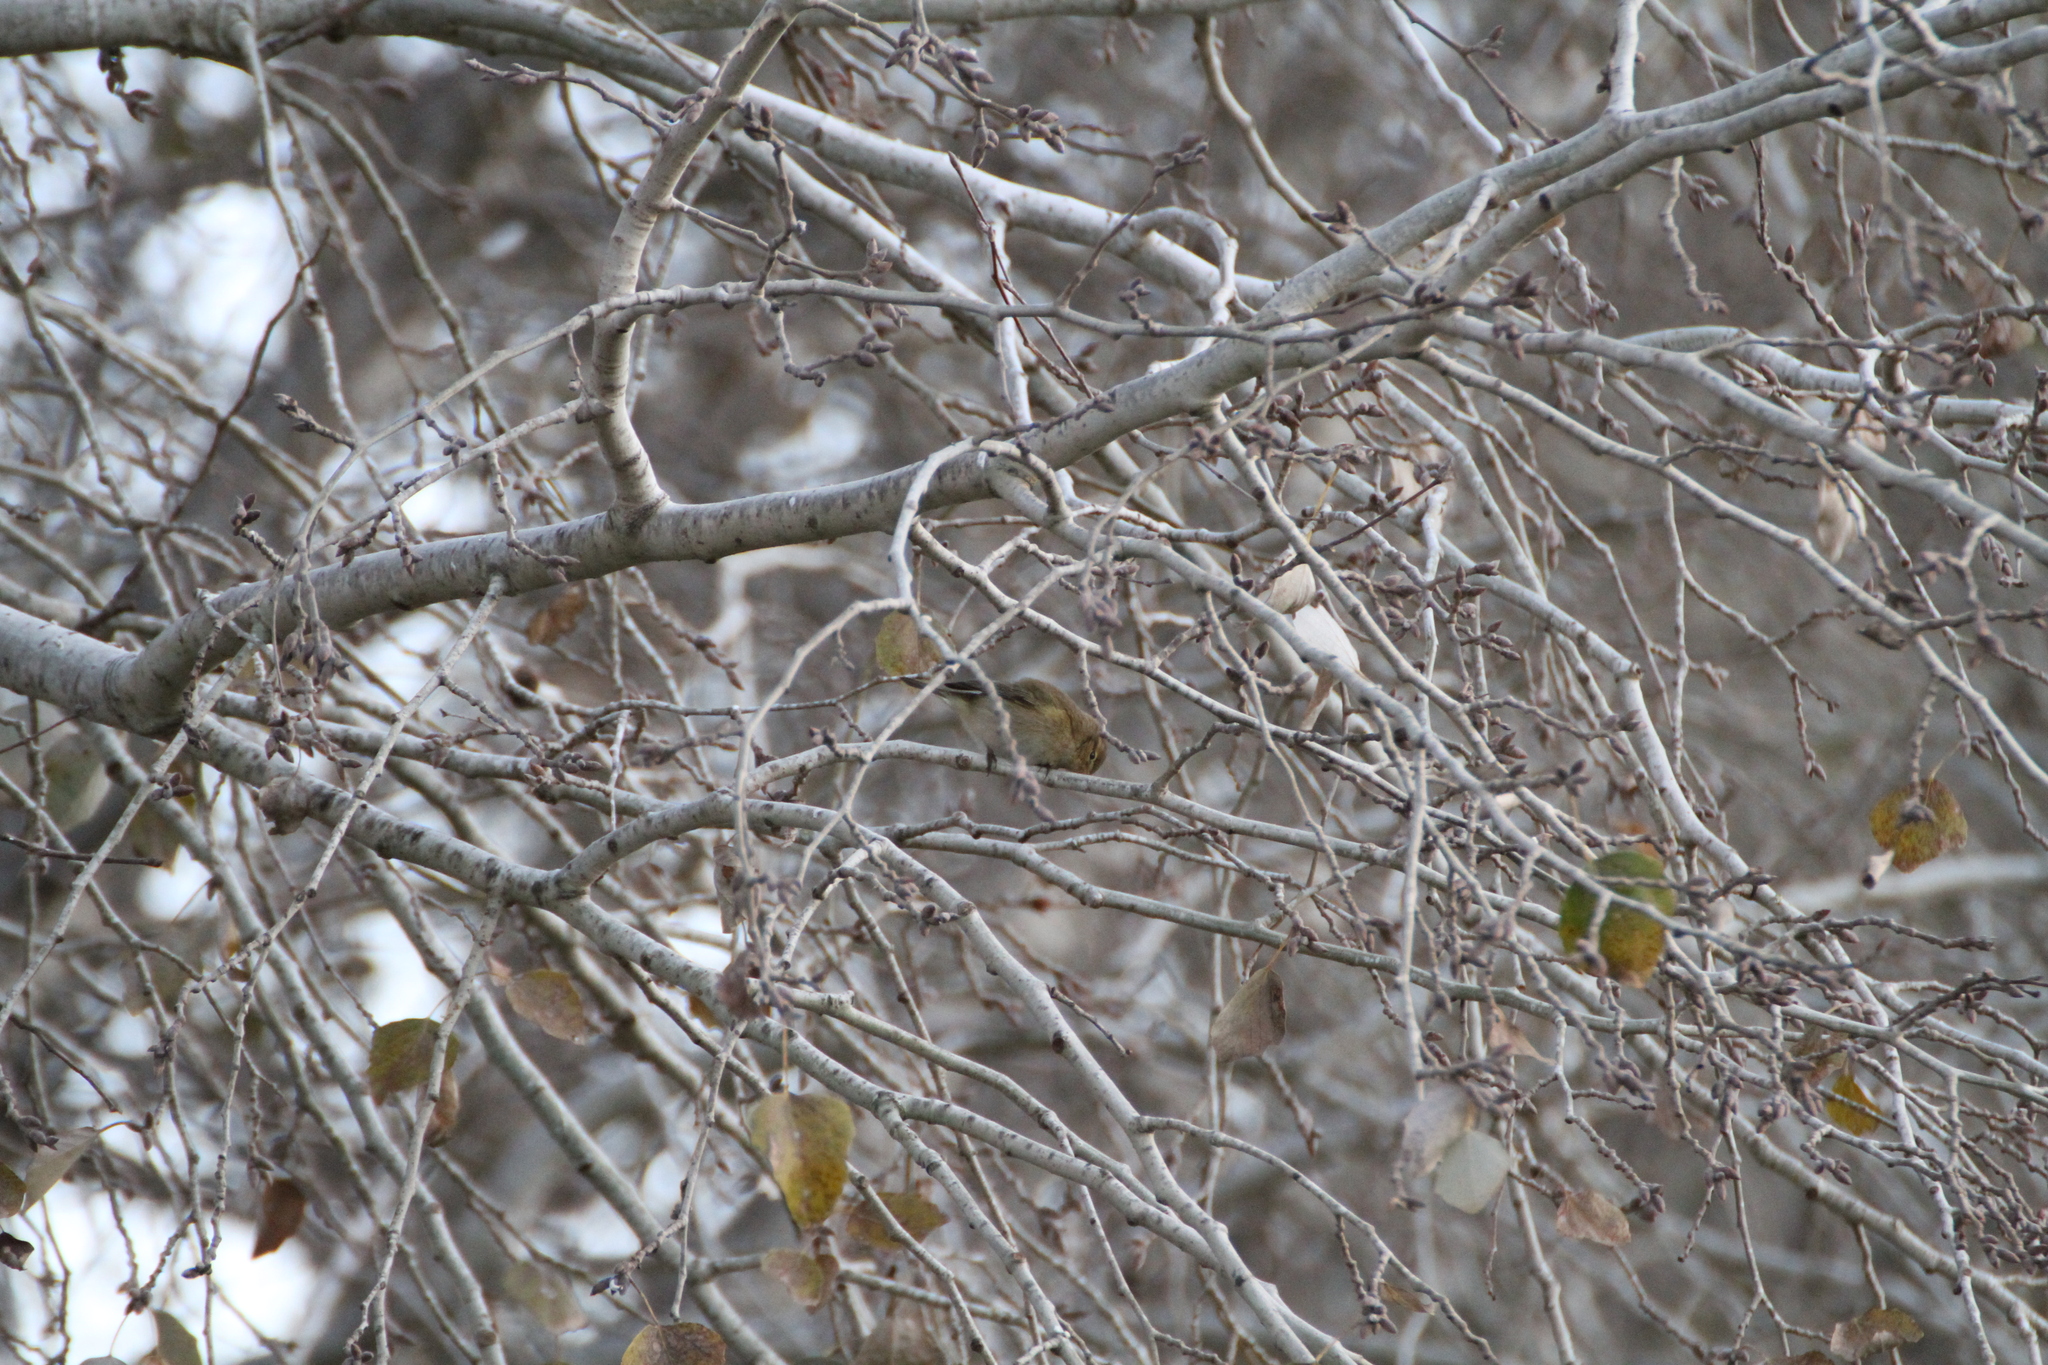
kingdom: Animalia
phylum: Chordata
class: Aves
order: Passeriformes
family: Phylloscopidae
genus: Phylloscopus
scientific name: Phylloscopus collybita
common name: Common chiffchaff
